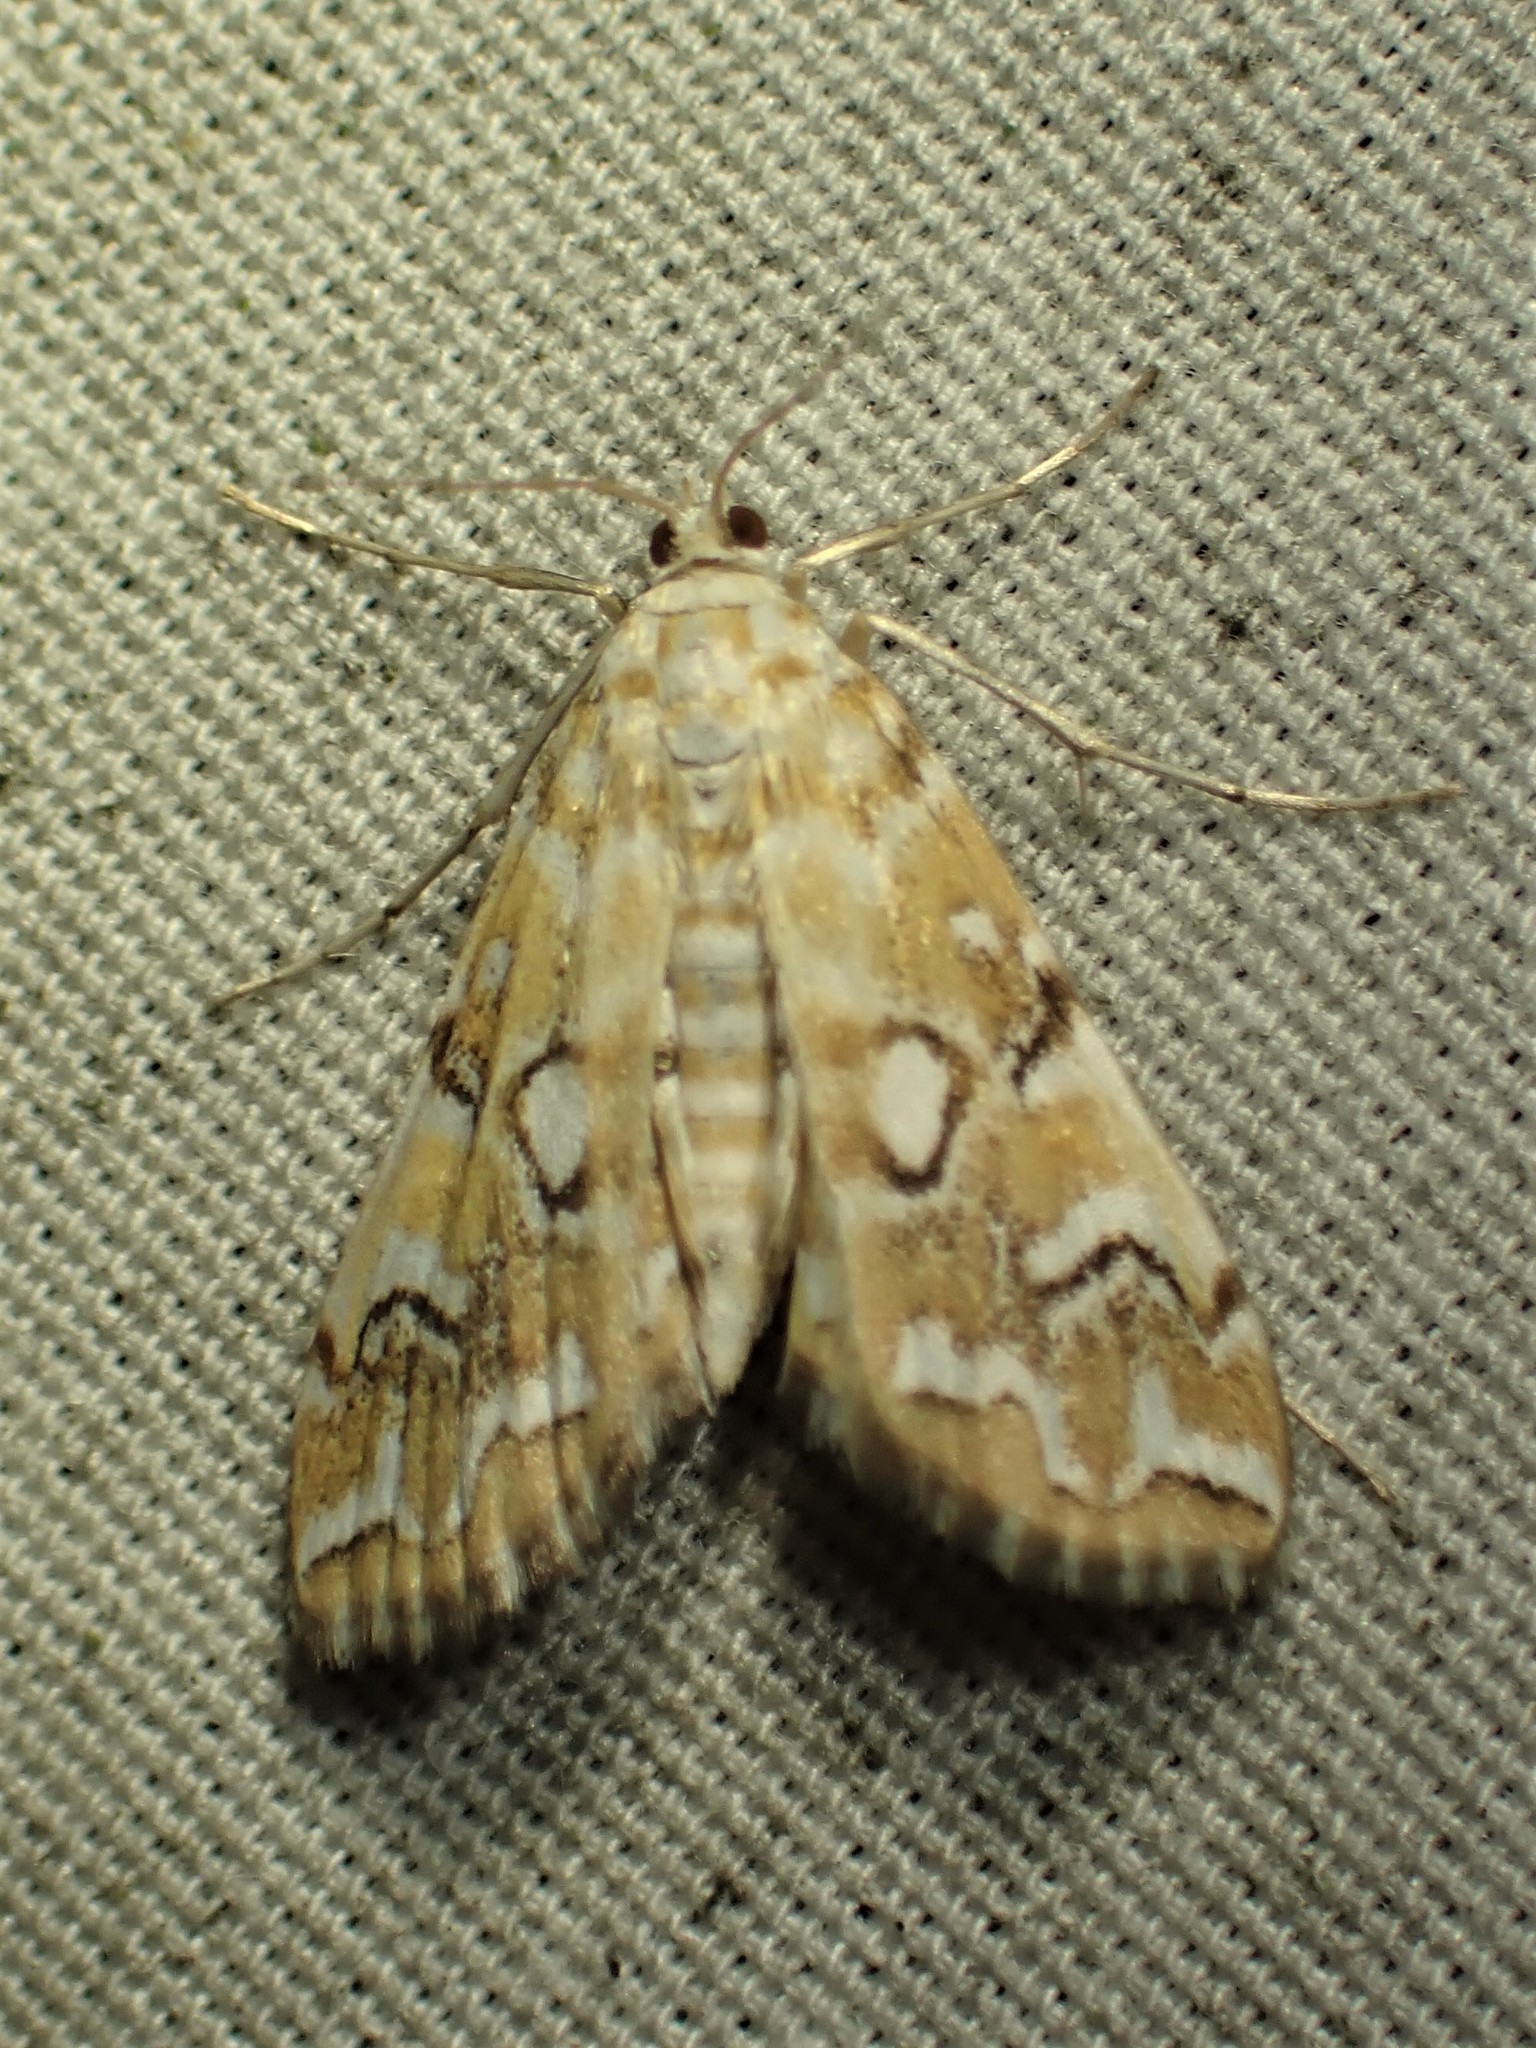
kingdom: Animalia
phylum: Arthropoda
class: Insecta
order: Lepidoptera
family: Crambidae
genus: Elophila
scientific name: Elophila icciusalis
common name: Pondside pyralid moth
